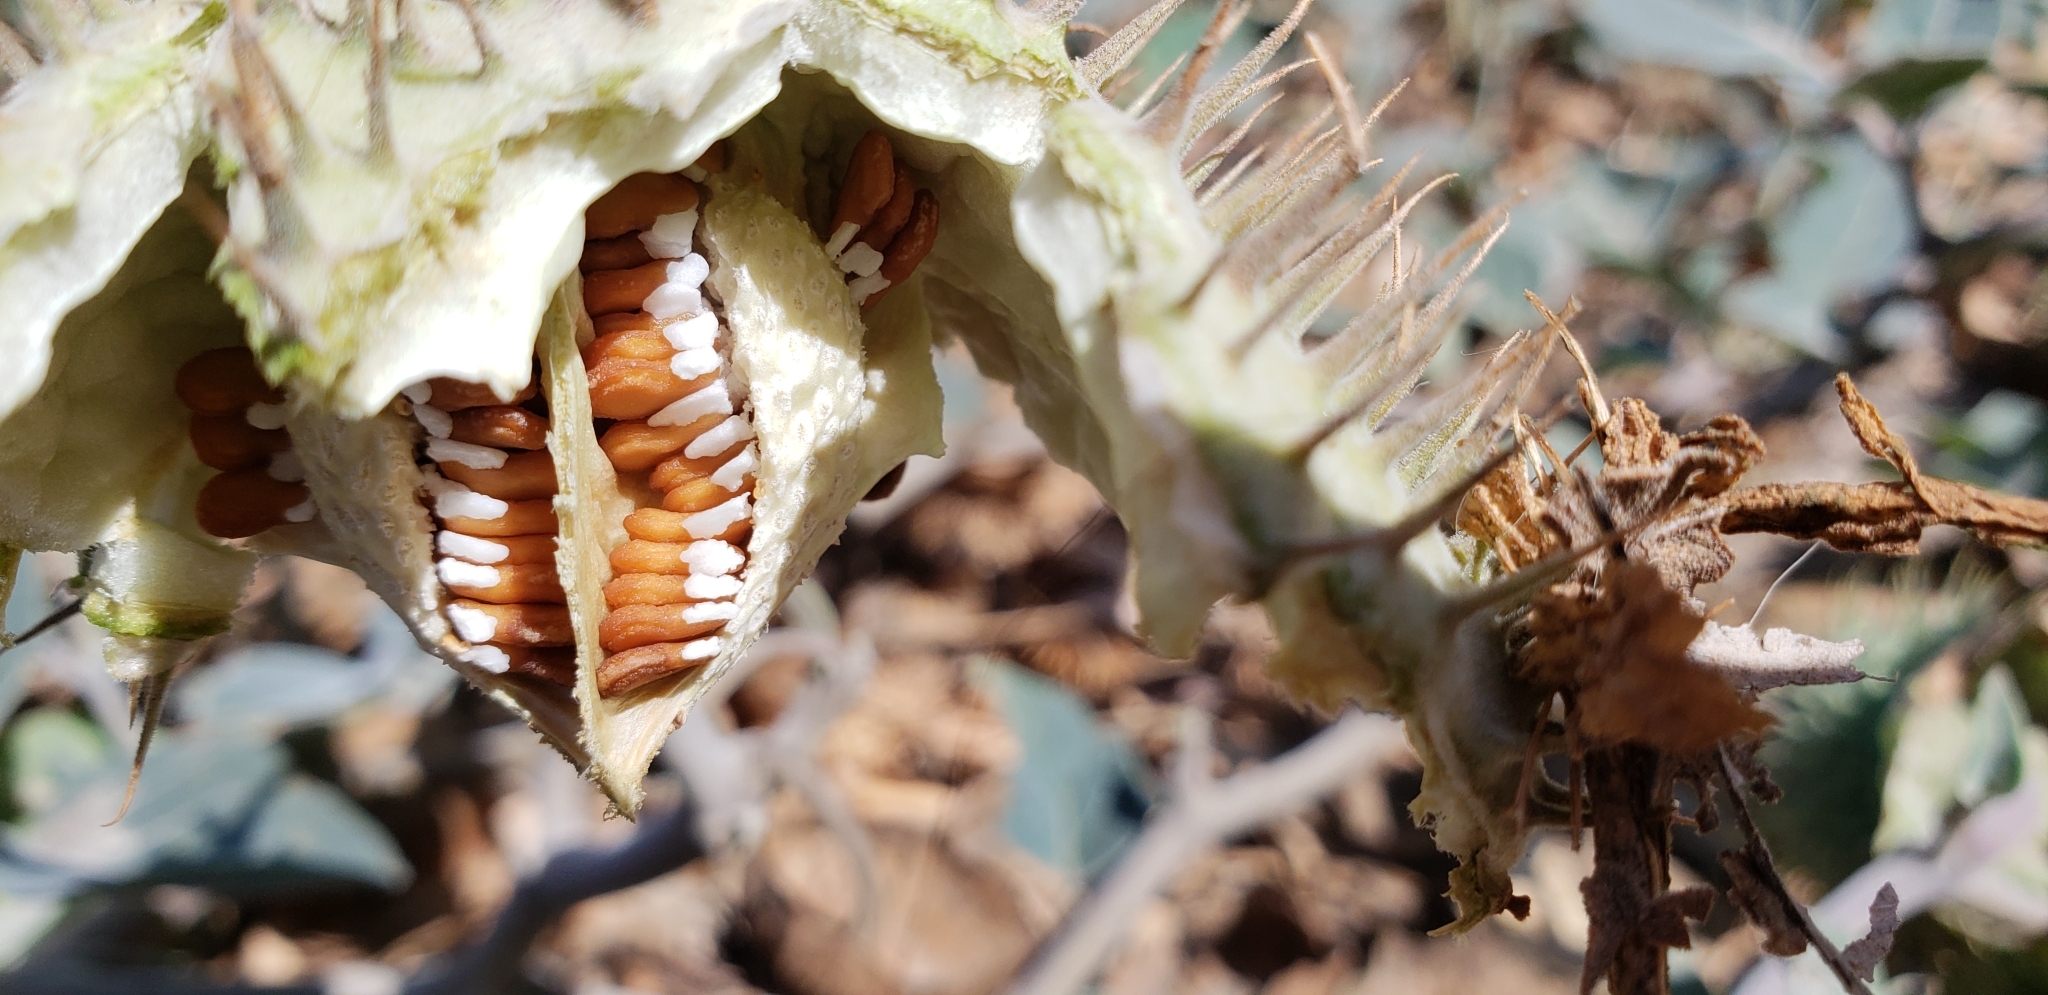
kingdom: Plantae
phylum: Tracheophyta
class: Magnoliopsida
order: Solanales
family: Solanaceae
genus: Datura
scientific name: Datura wrightii
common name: Sacred thorn-apple
